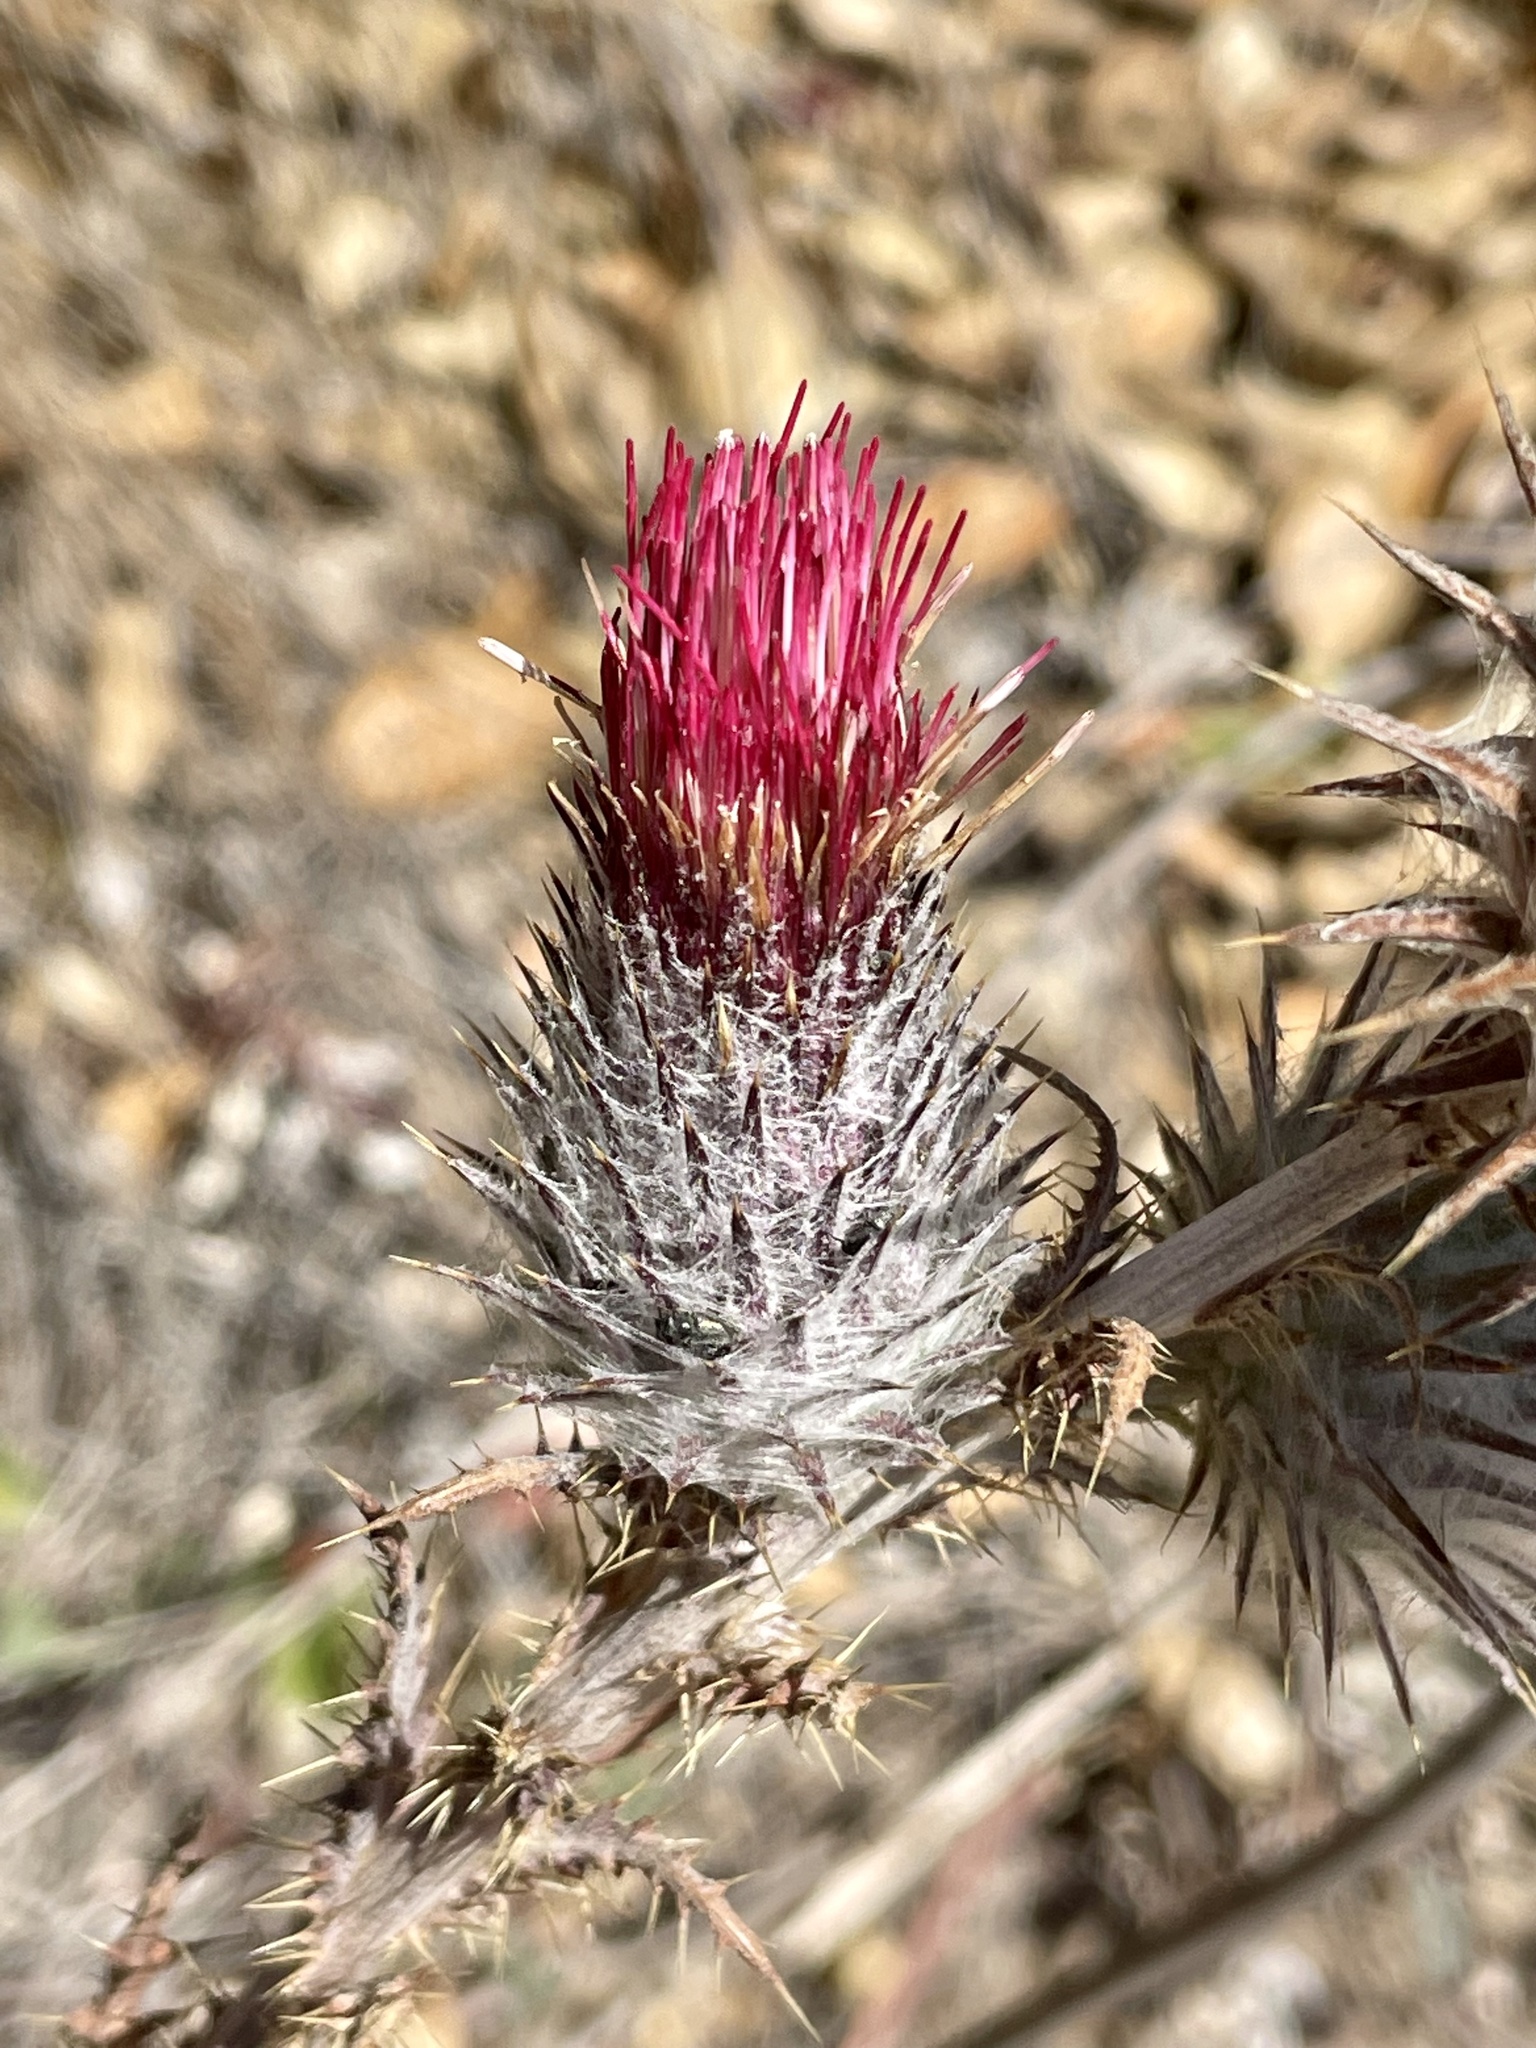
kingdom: Plantae
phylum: Tracheophyta
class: Magnoliopsida
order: Asterales
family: Asteraceae
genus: Cirsium
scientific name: Cirsium occidentale
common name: Western thistle
